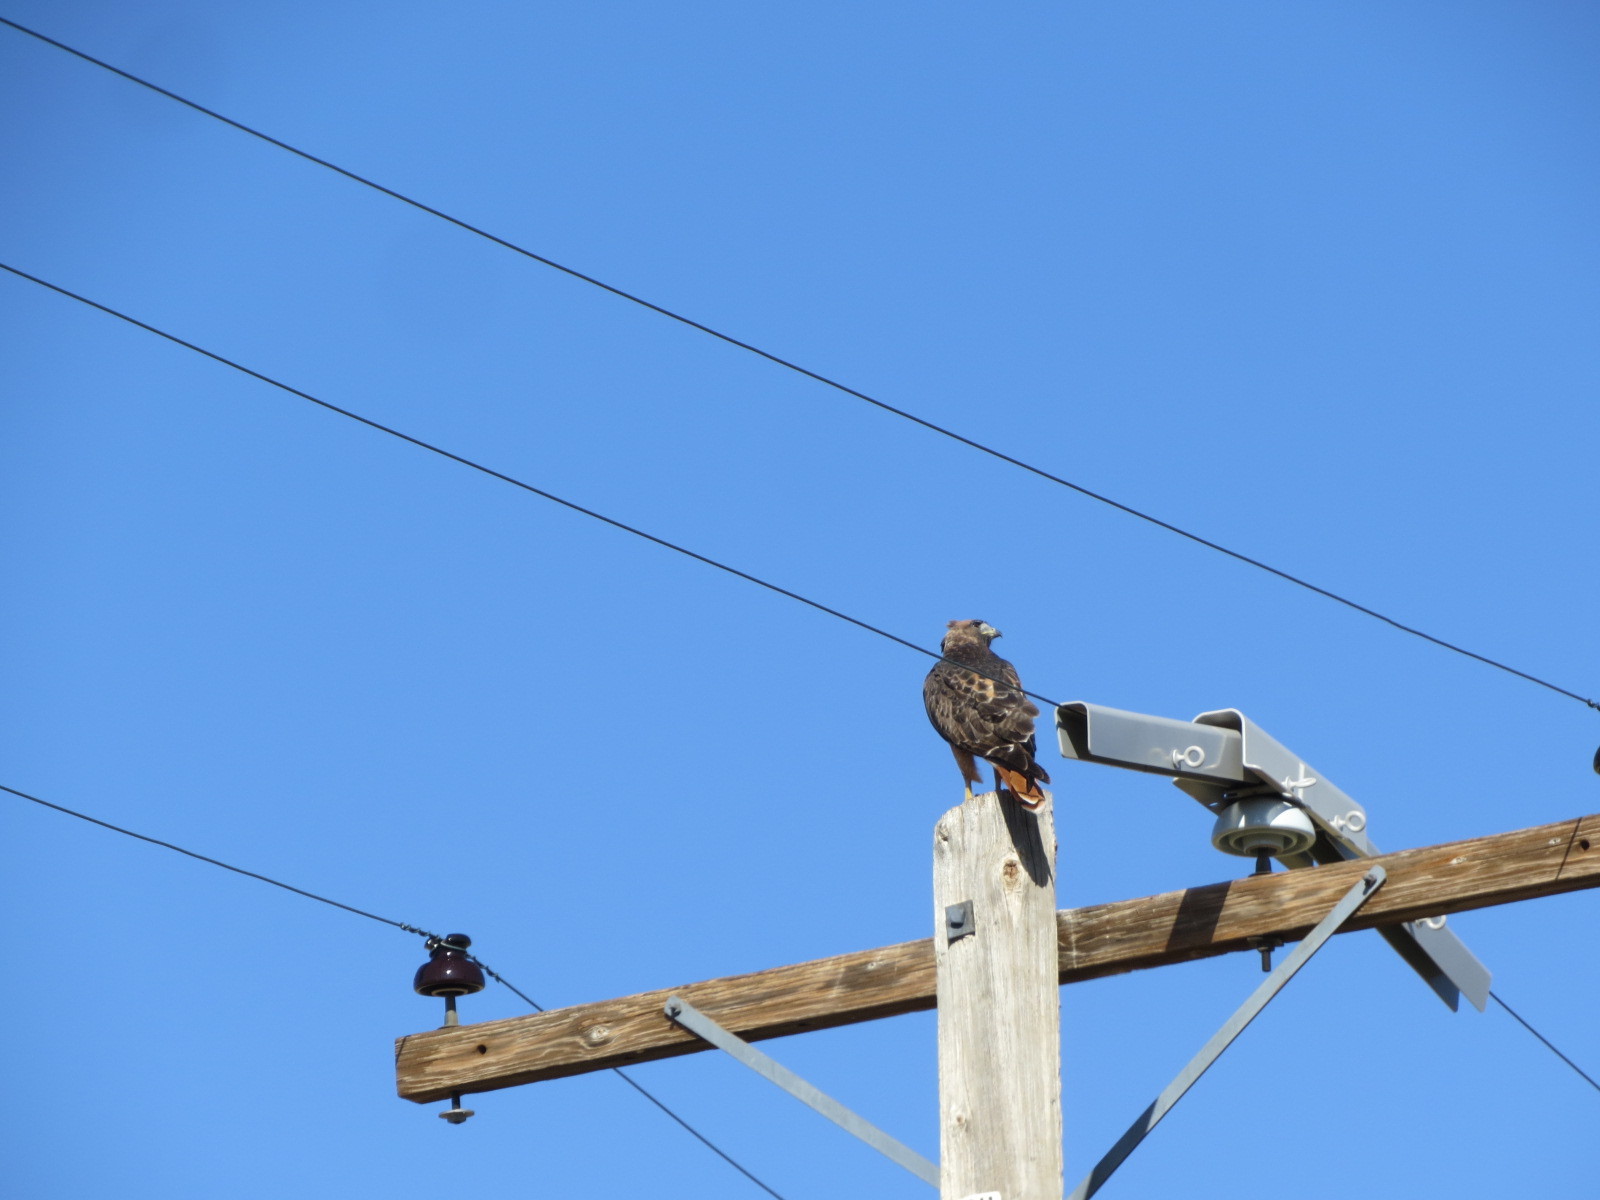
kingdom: Animalia
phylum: Chordata
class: Aves
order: Accipitriformes
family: Accipitridae
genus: Buteo
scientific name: Buteo jamaicensis
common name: Red-tailed hawk
